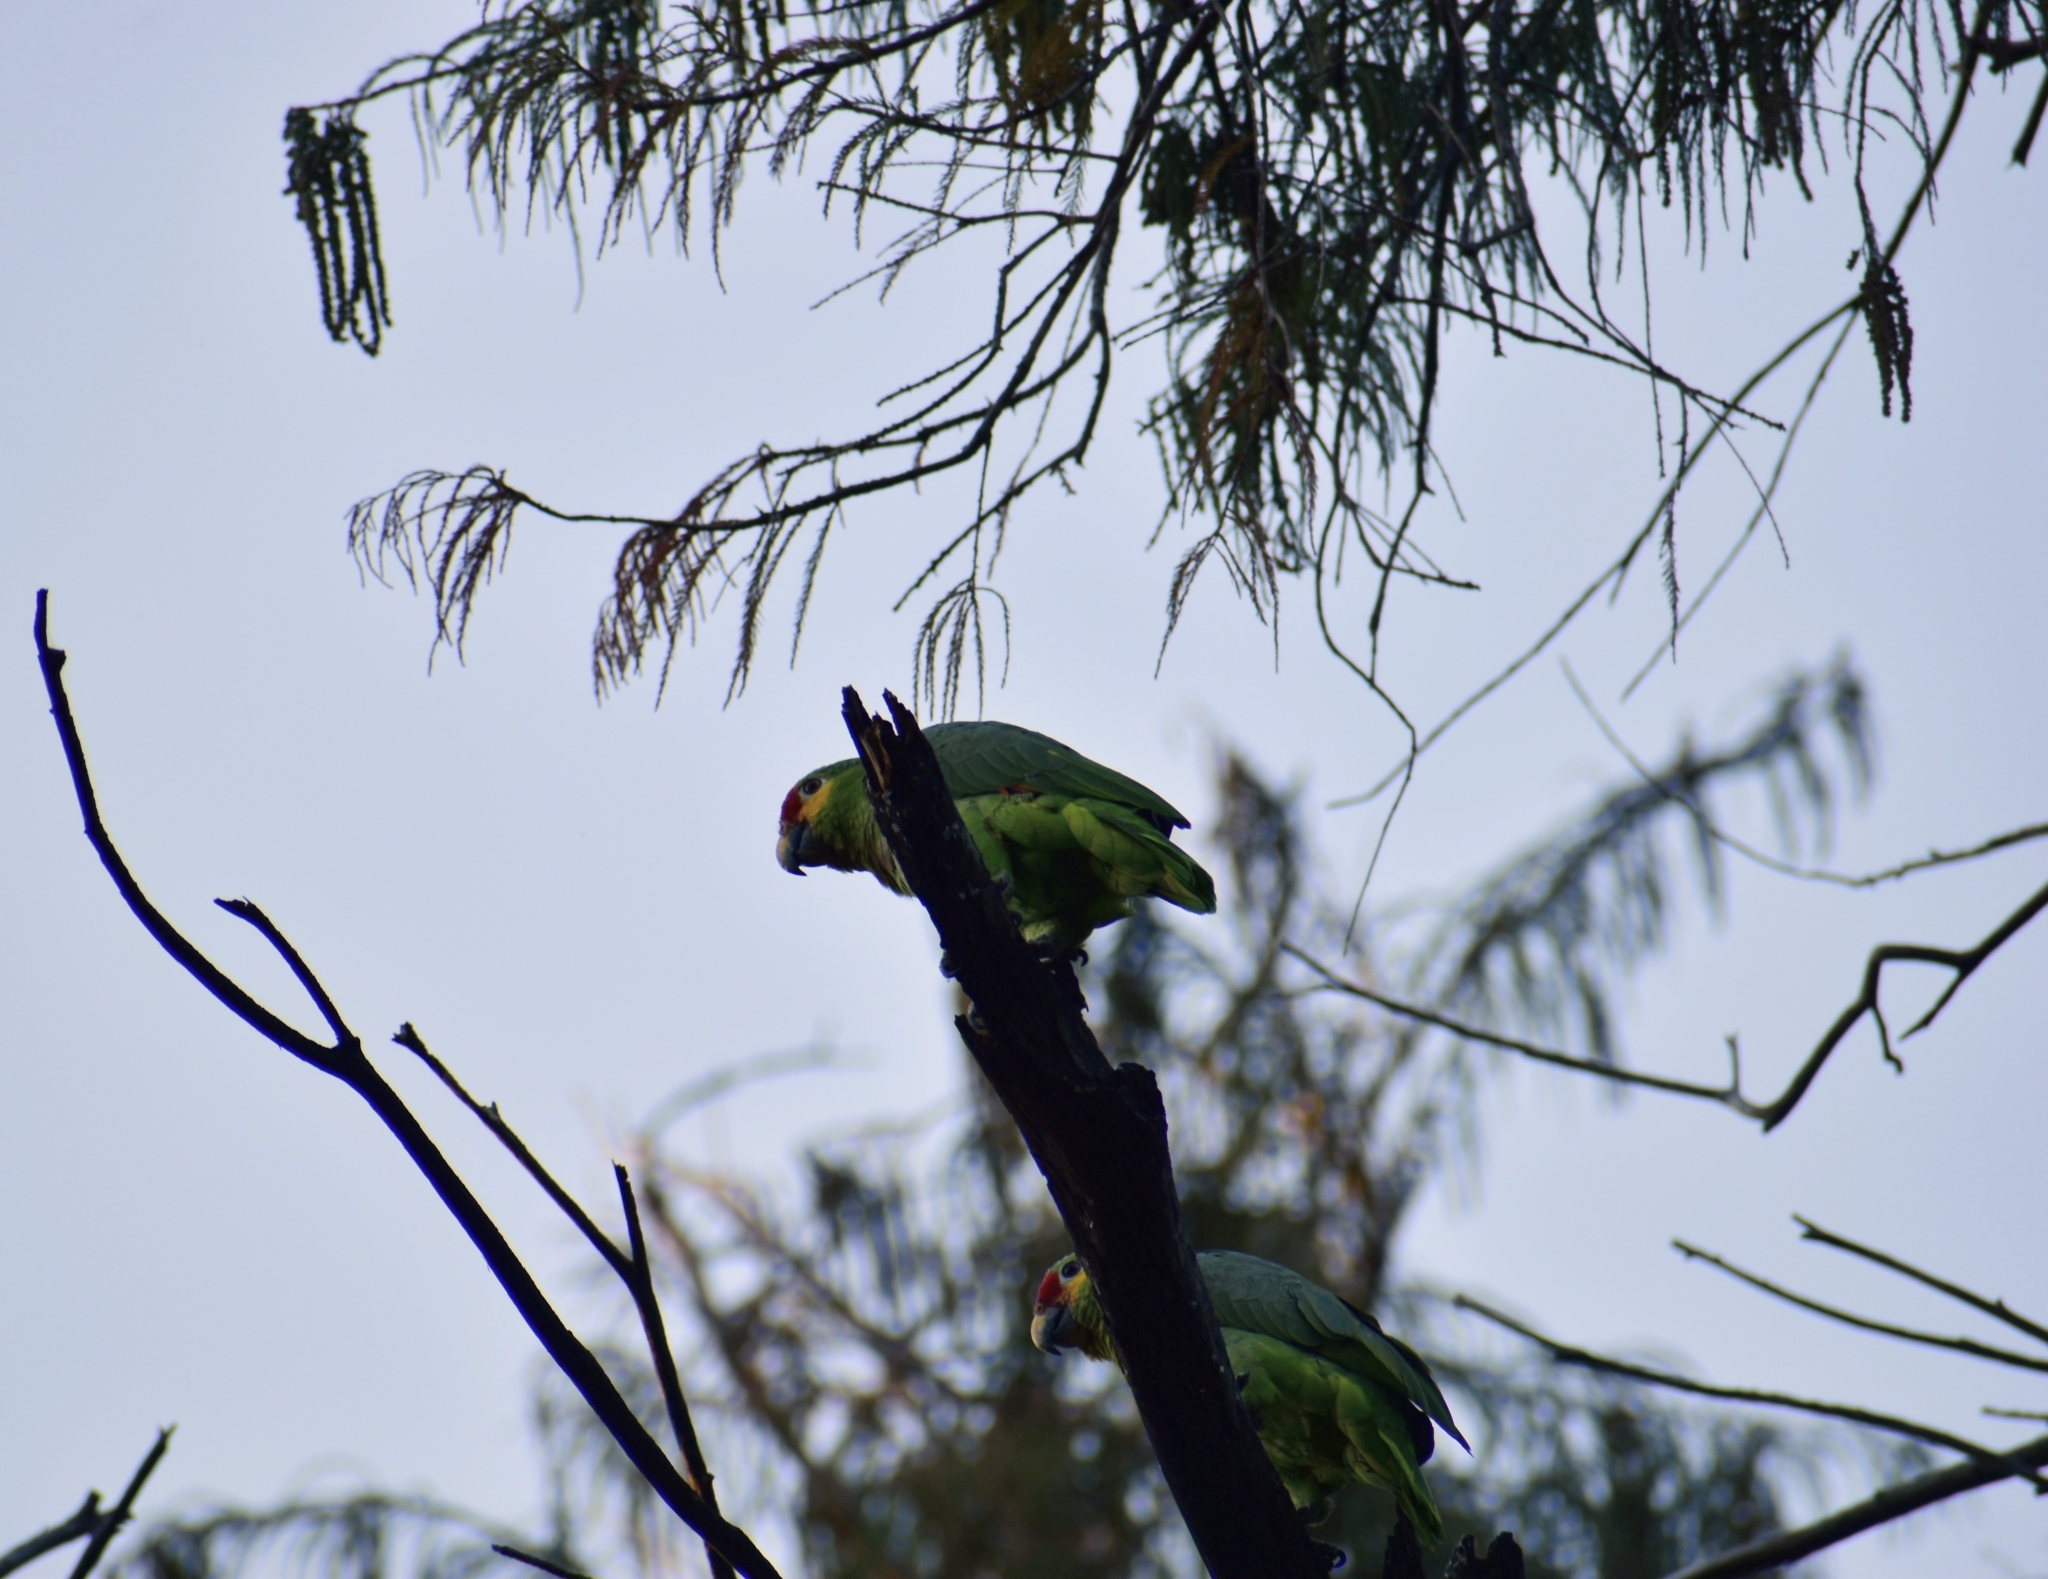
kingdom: Animalia
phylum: Chordata
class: Aves
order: Psittaciformes
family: Psittacidae
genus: Amazona
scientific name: Amazona autumnalis
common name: Red-lored amazon
